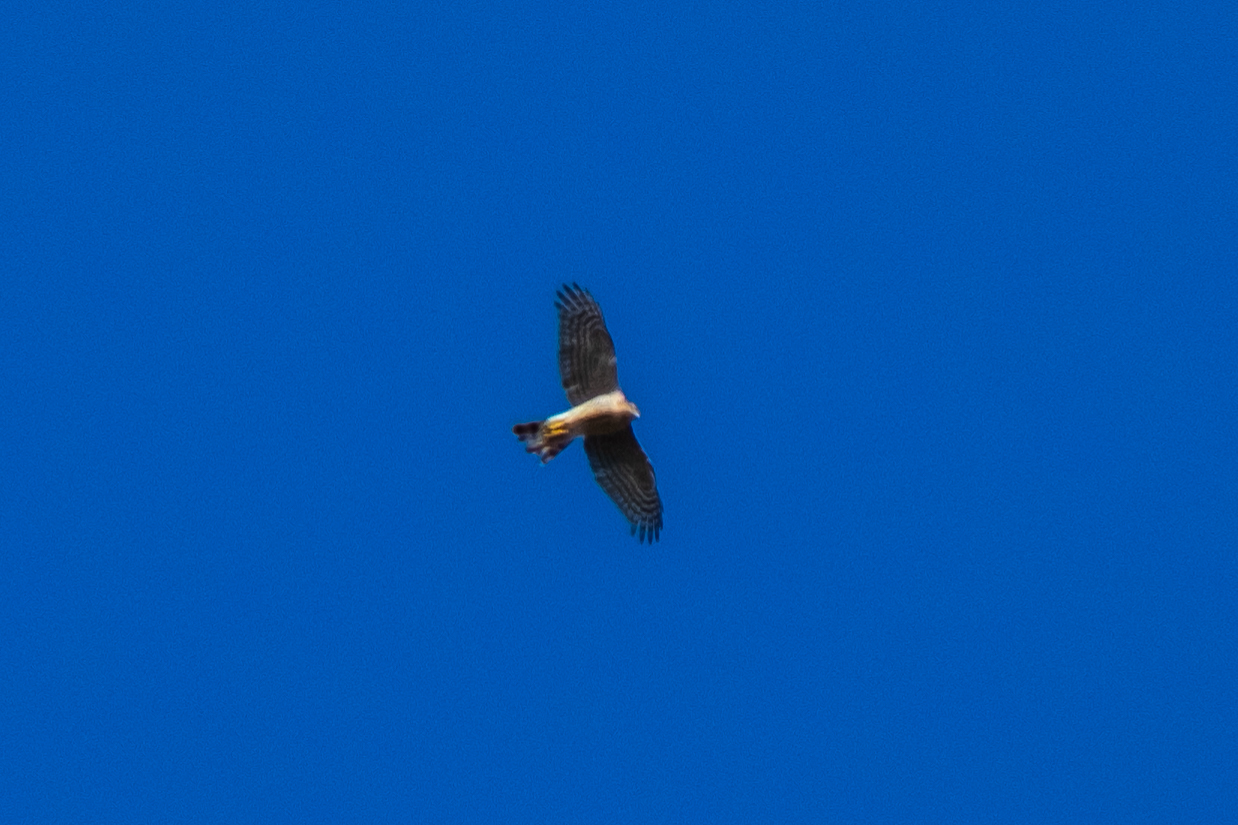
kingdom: Animalia
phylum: Chordata
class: Aves
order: Accipitriformes
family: Accipitridae
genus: Accipiter
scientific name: Accipiter nisus
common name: Eurasian sparrowhawk
